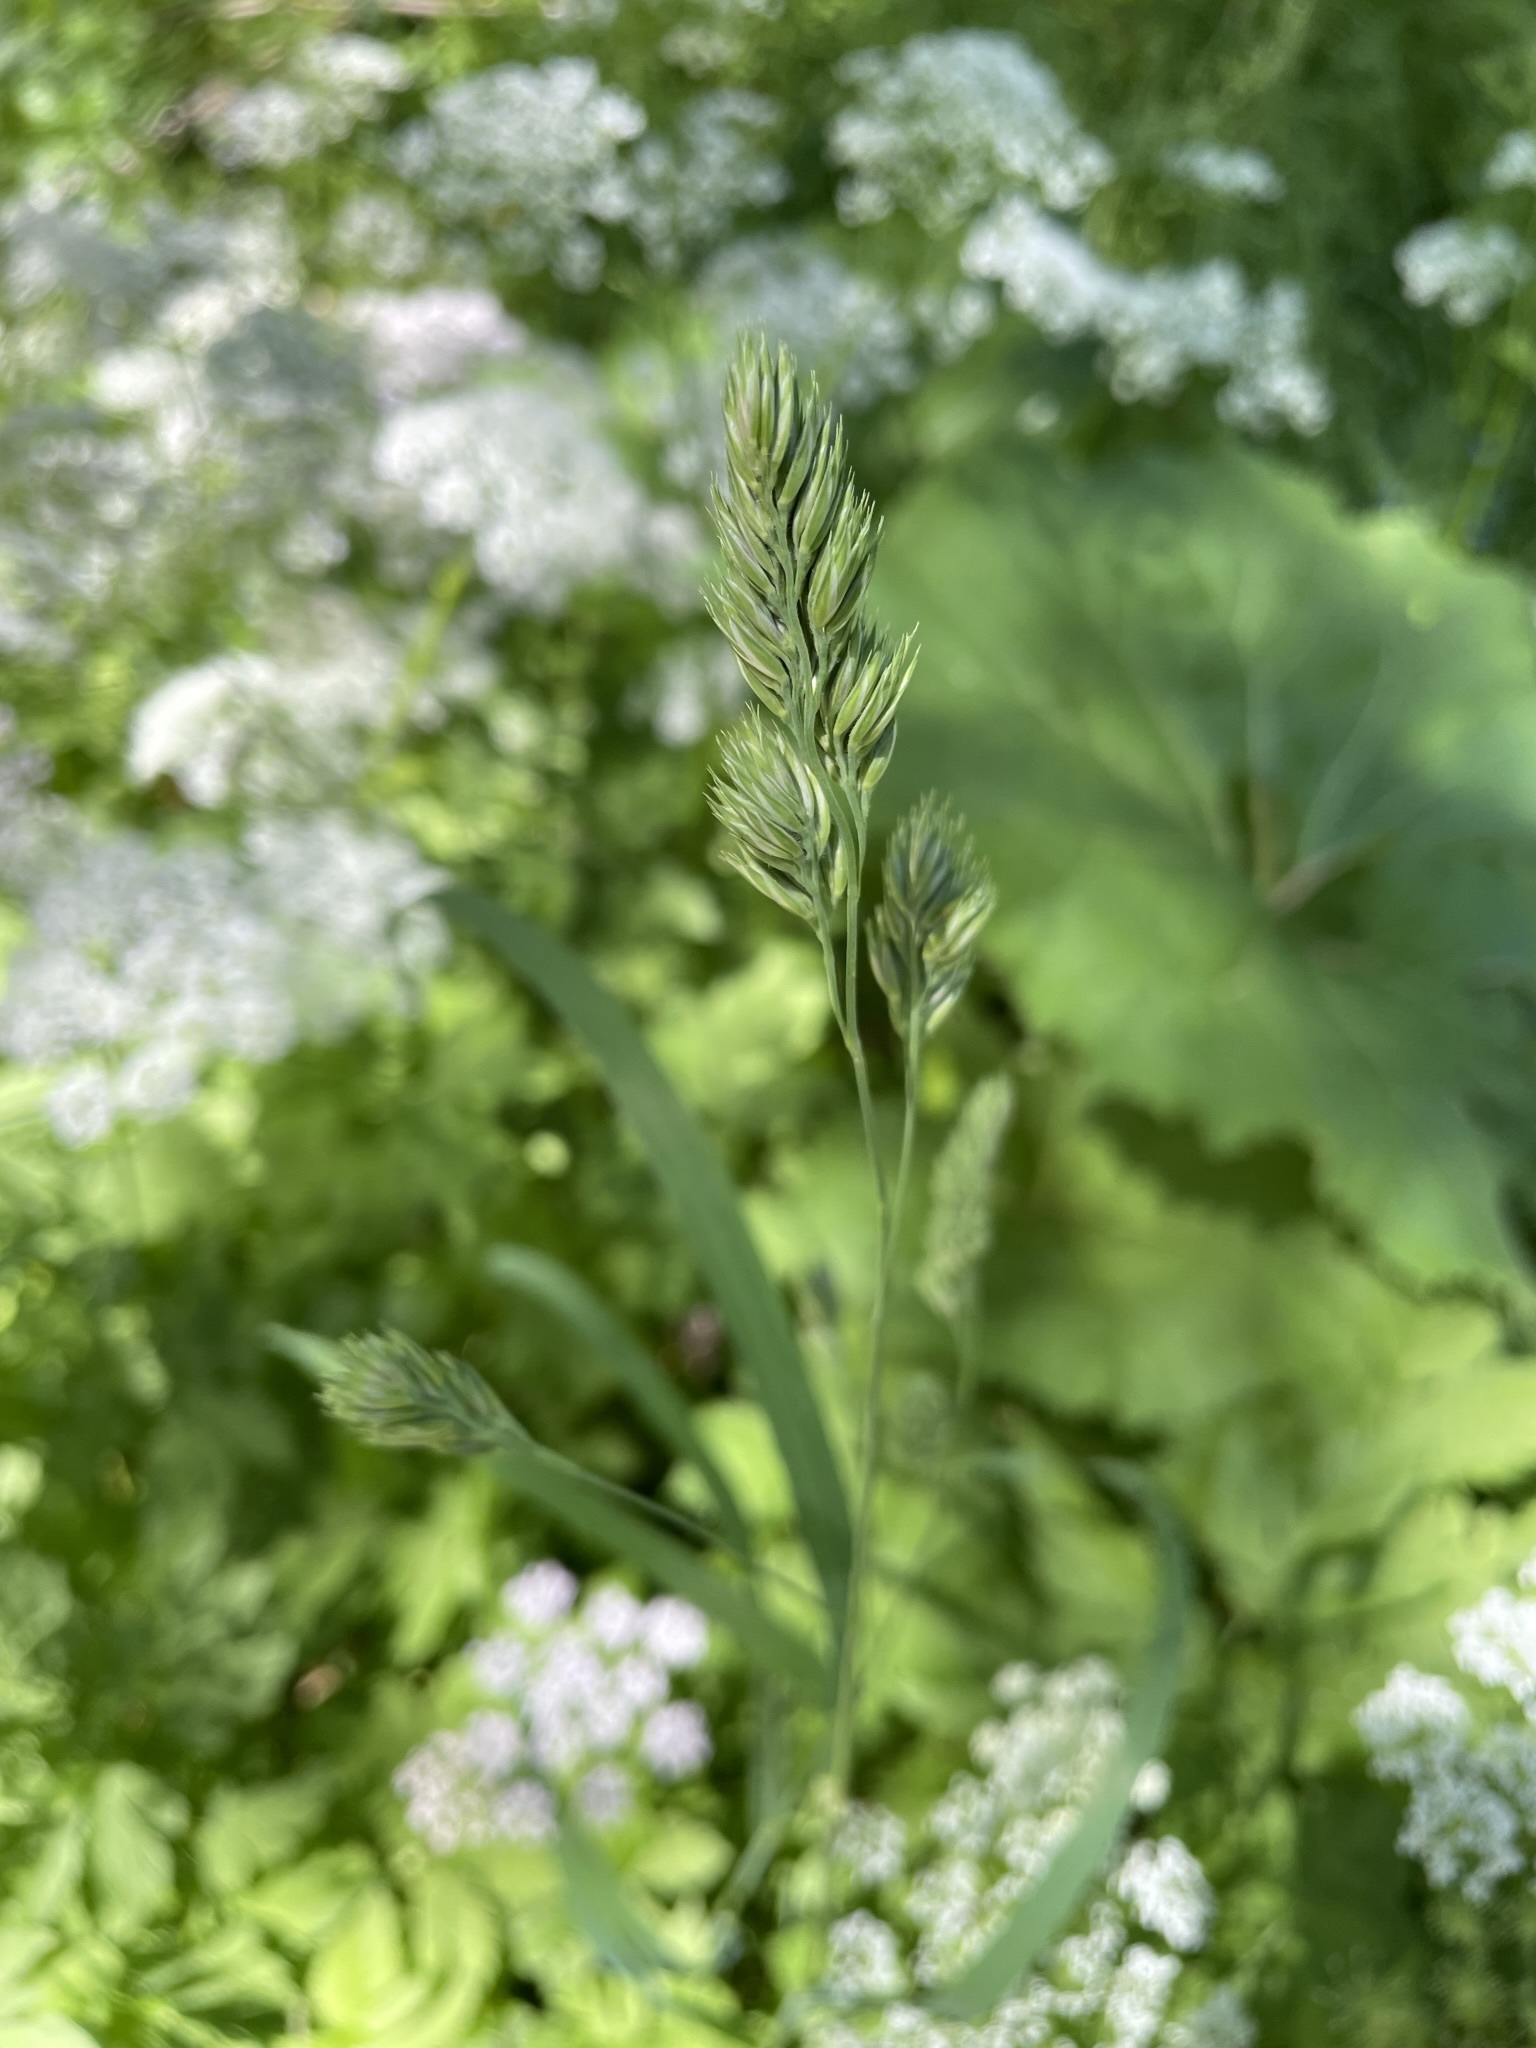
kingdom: Plantae
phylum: Tracheophyta
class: Liliopsida
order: Poales
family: Poaceae
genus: Dactylis
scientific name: Dactylis glomerata
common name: Orchardgrass
